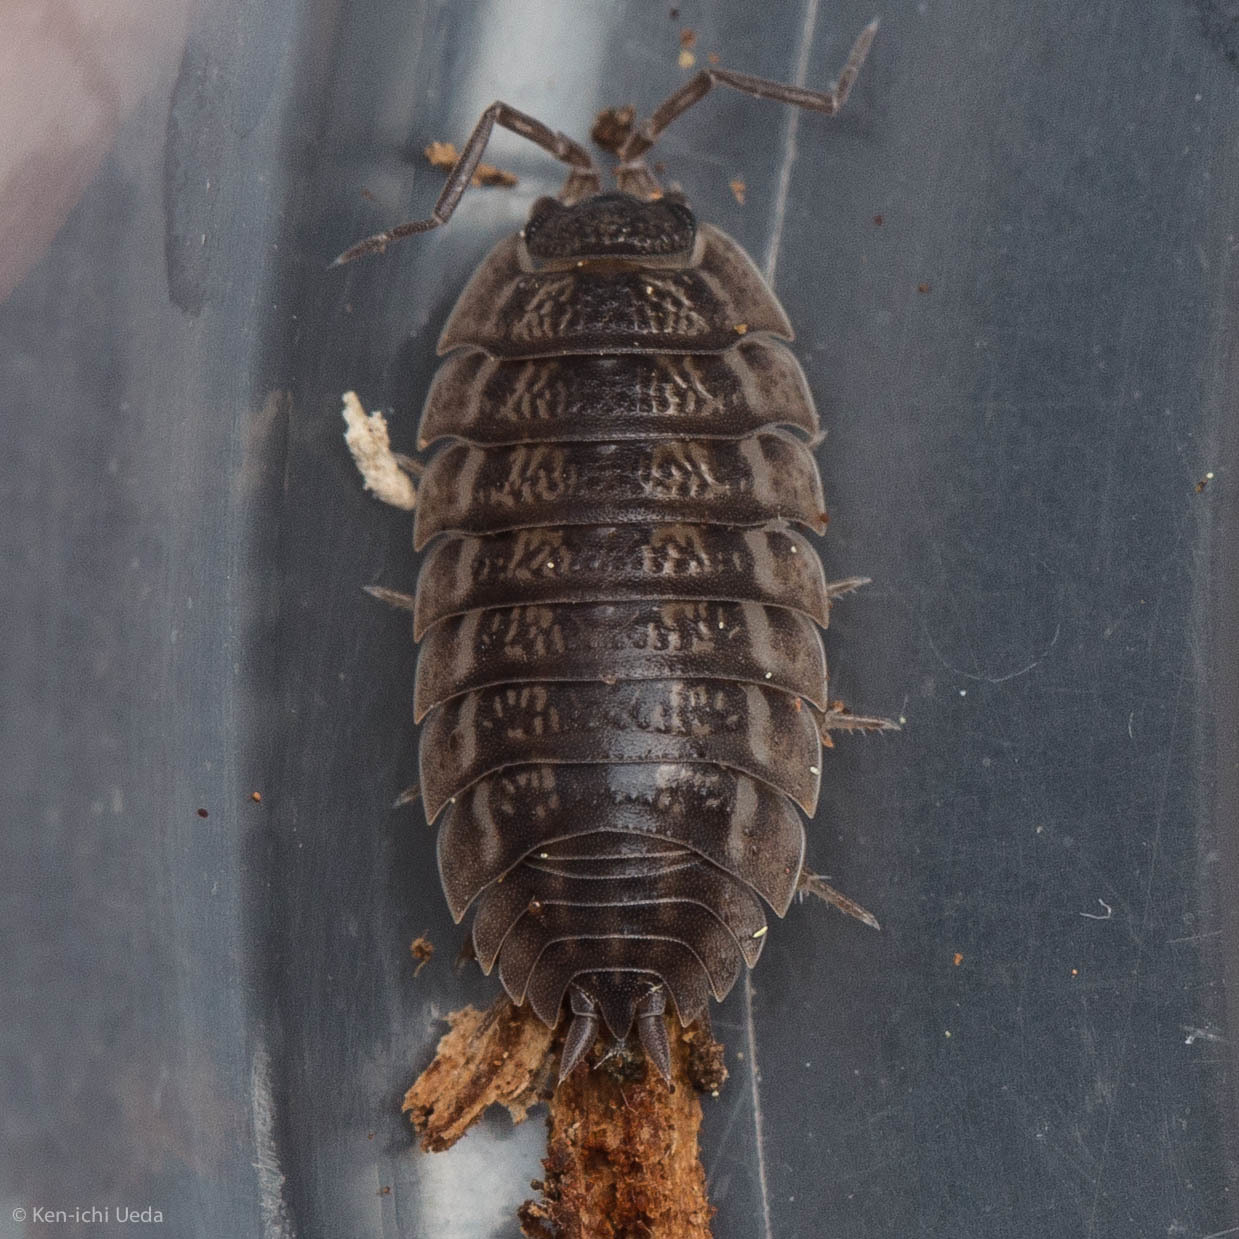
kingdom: Animalia
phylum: Arthropoda
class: Malacostraca
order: Isopoda
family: Trachelipodidae
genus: Trachelipus
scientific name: Trachelipus rathkii
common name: Isopod
